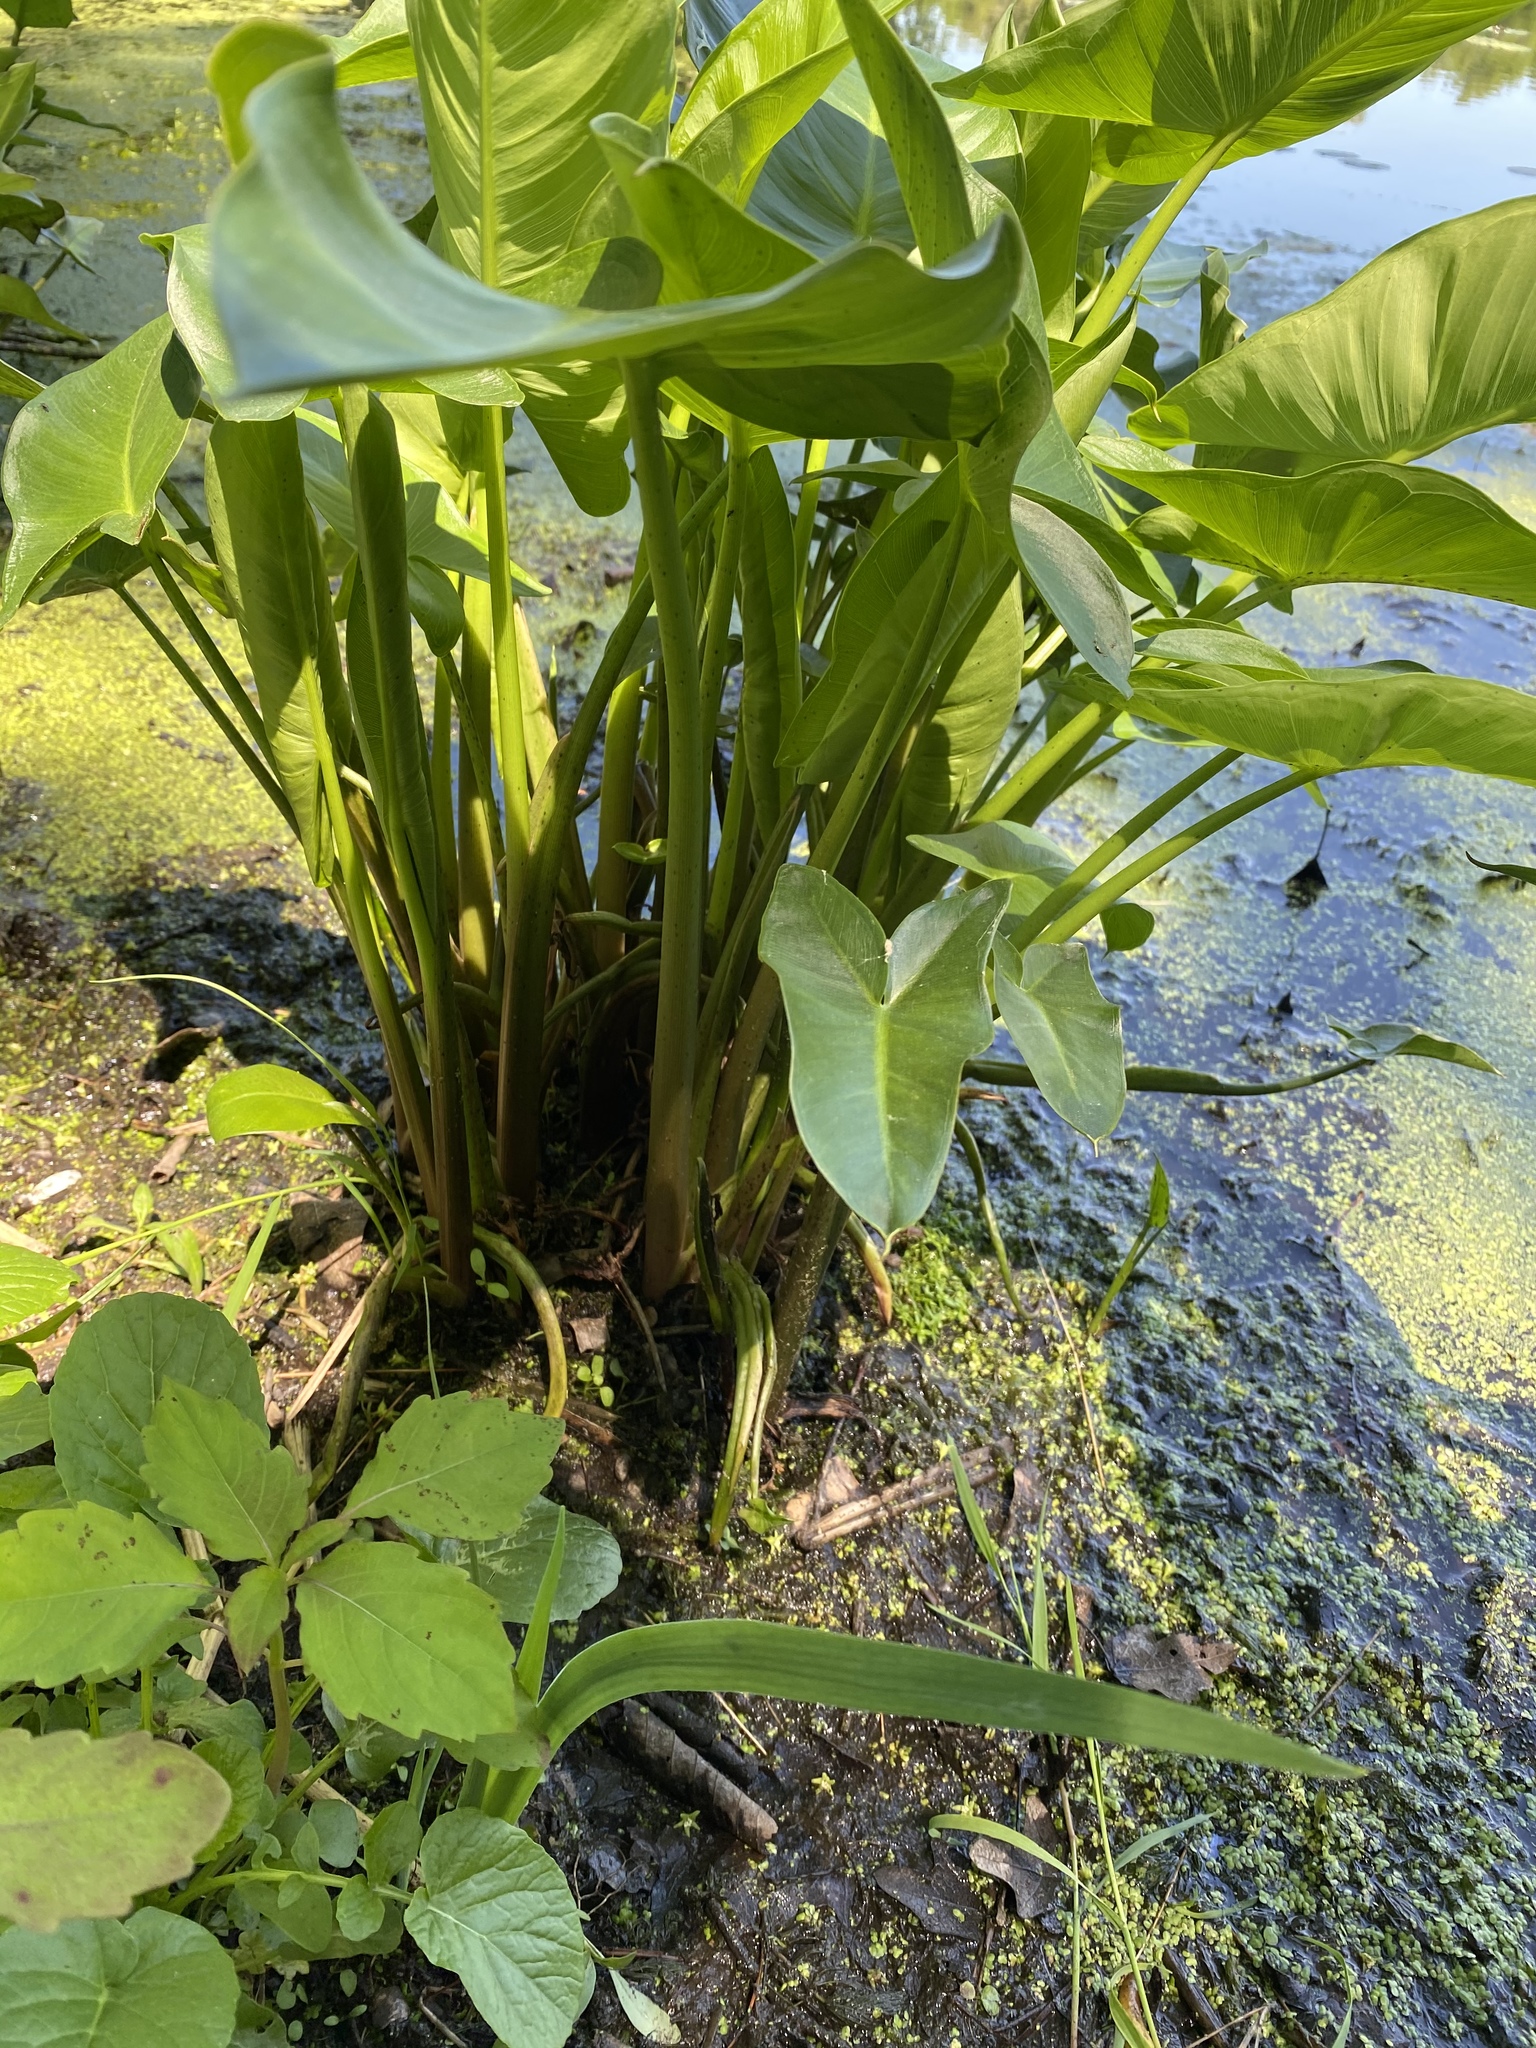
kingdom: Plantae
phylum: Tracheophyta
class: Liliopsida
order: Alismatales
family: Araceae
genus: Peltandra
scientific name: Peltandra virginica
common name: Arrow arum
